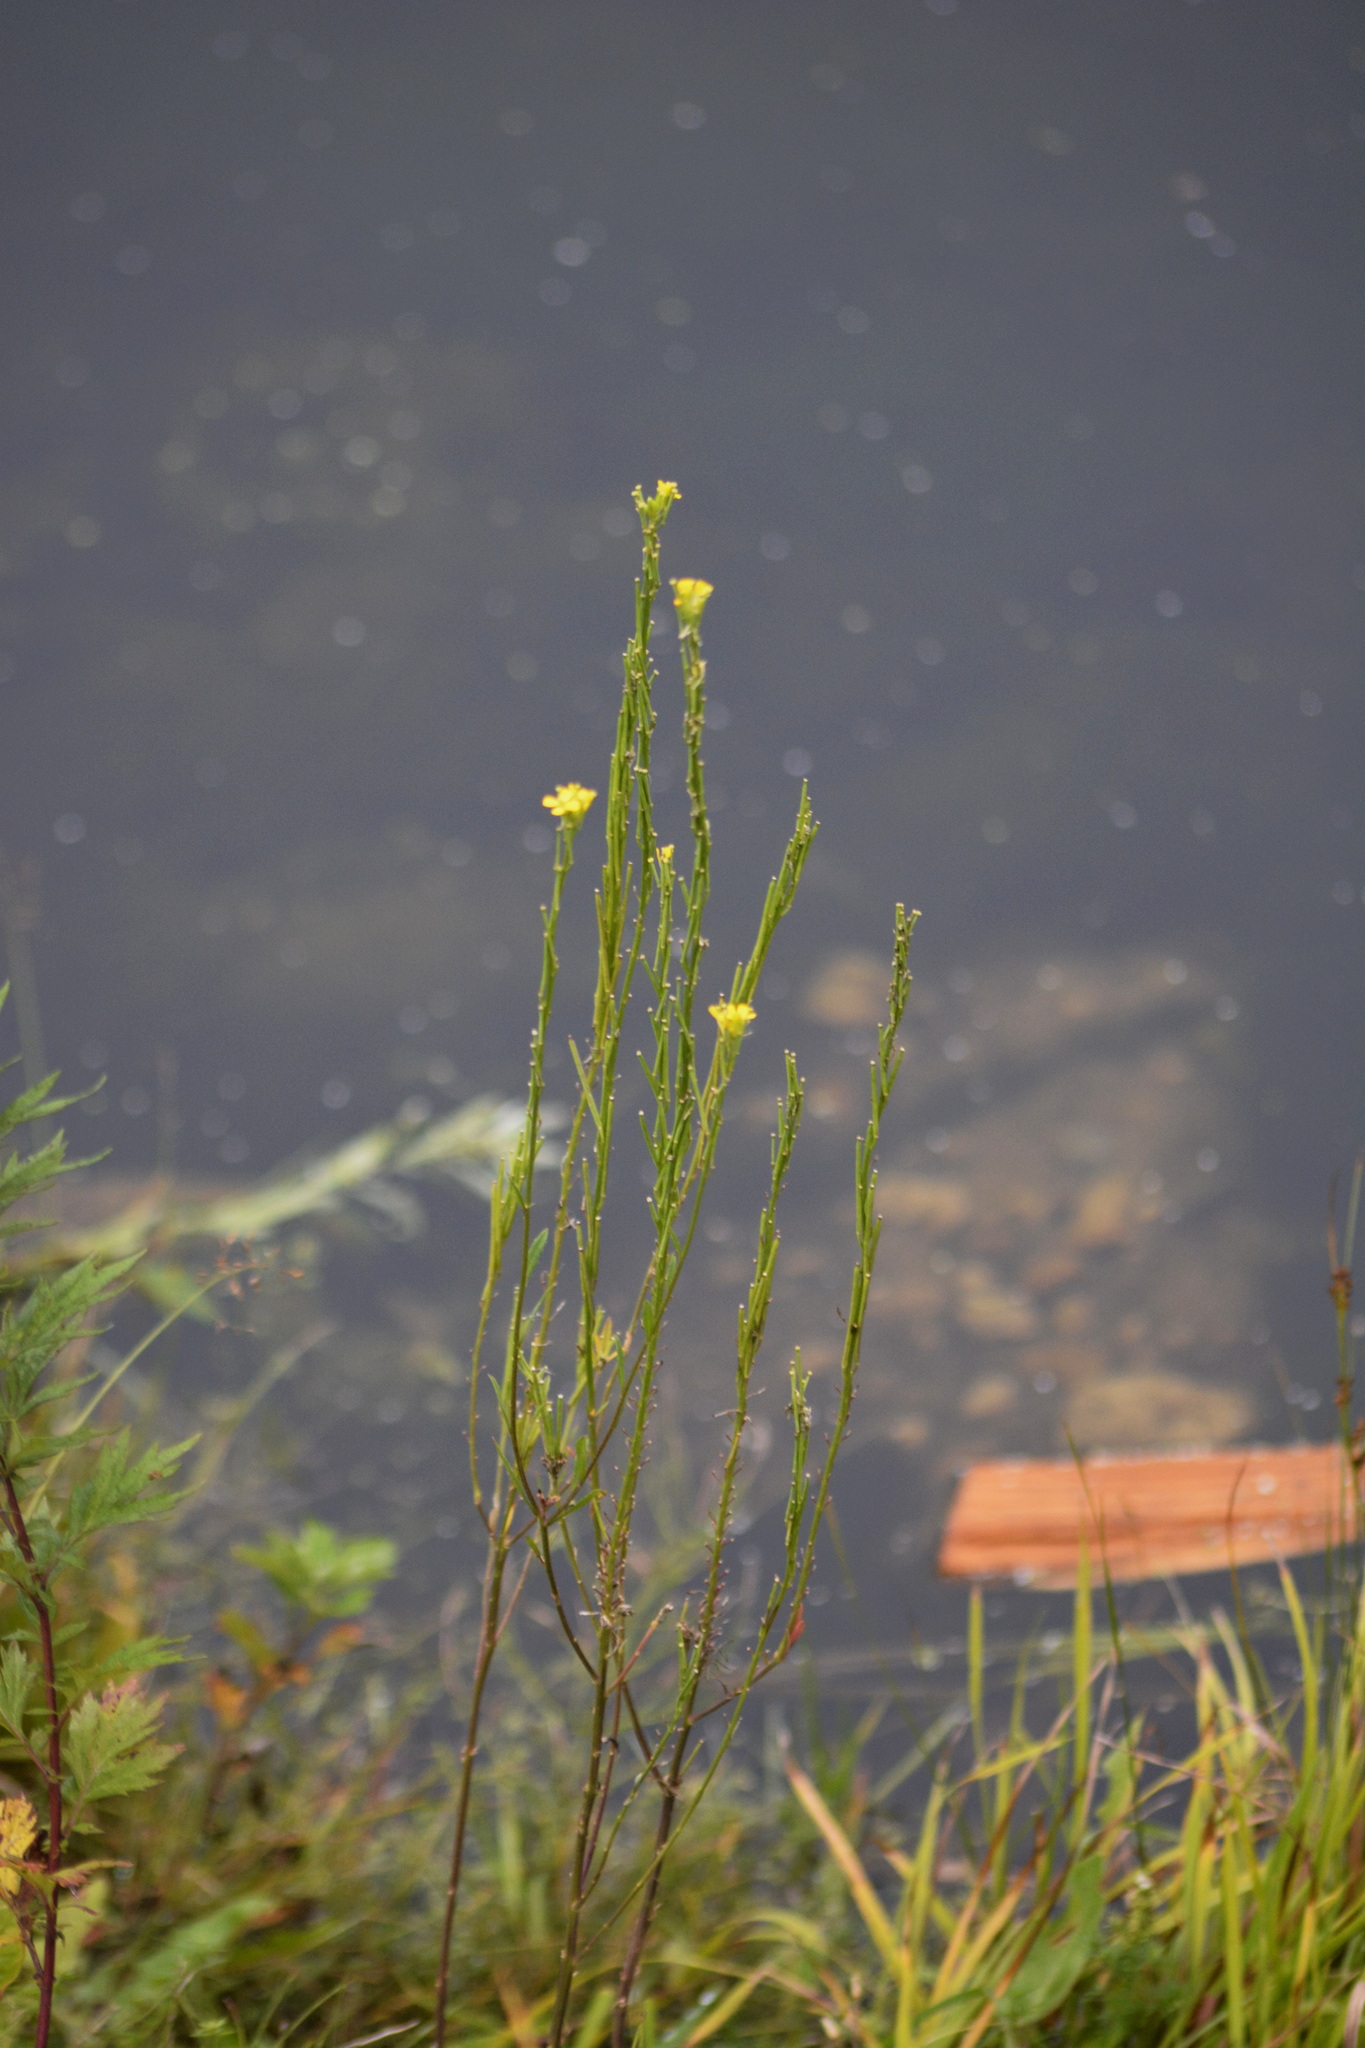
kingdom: Plantae
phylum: Tracheophyta
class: Magnoliopsida
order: Brassicales
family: Brassicaceae
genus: Erysimum
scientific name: Erysimum hieraciifolium
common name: European wallflower
